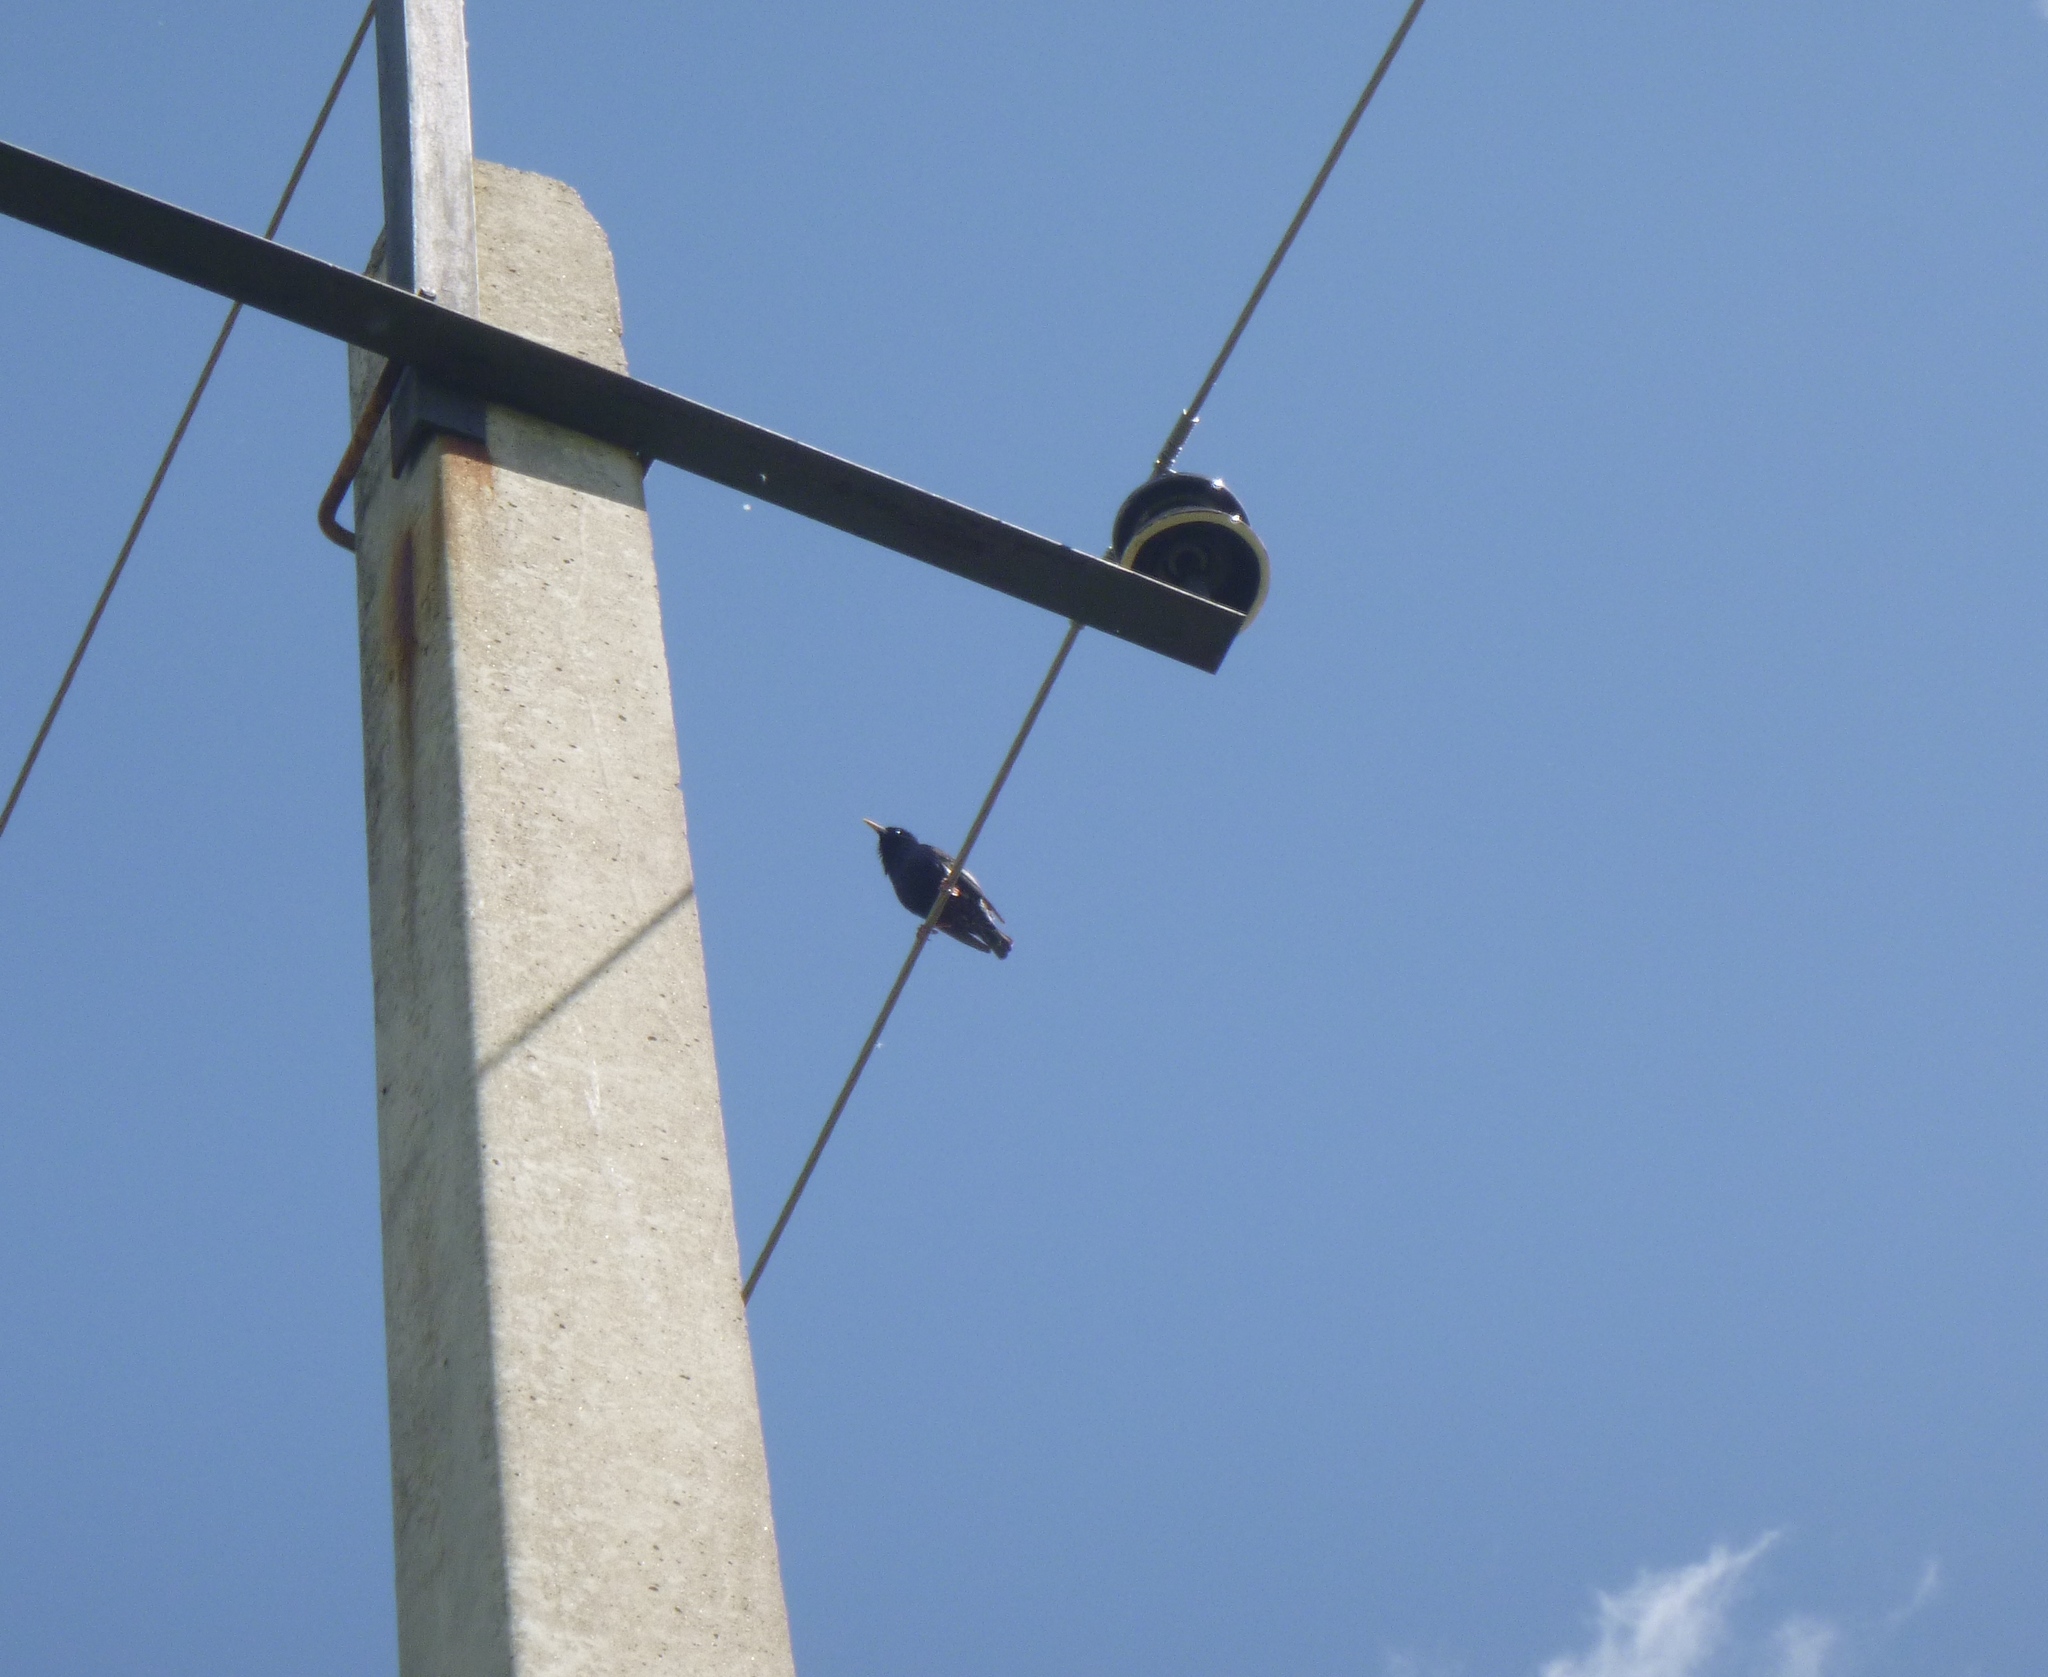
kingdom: Animalia
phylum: Chordata
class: Aves
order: Passeriformes
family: Sturnidae
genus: Sturnus
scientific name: Sturnus vulgaris
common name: Common starling
